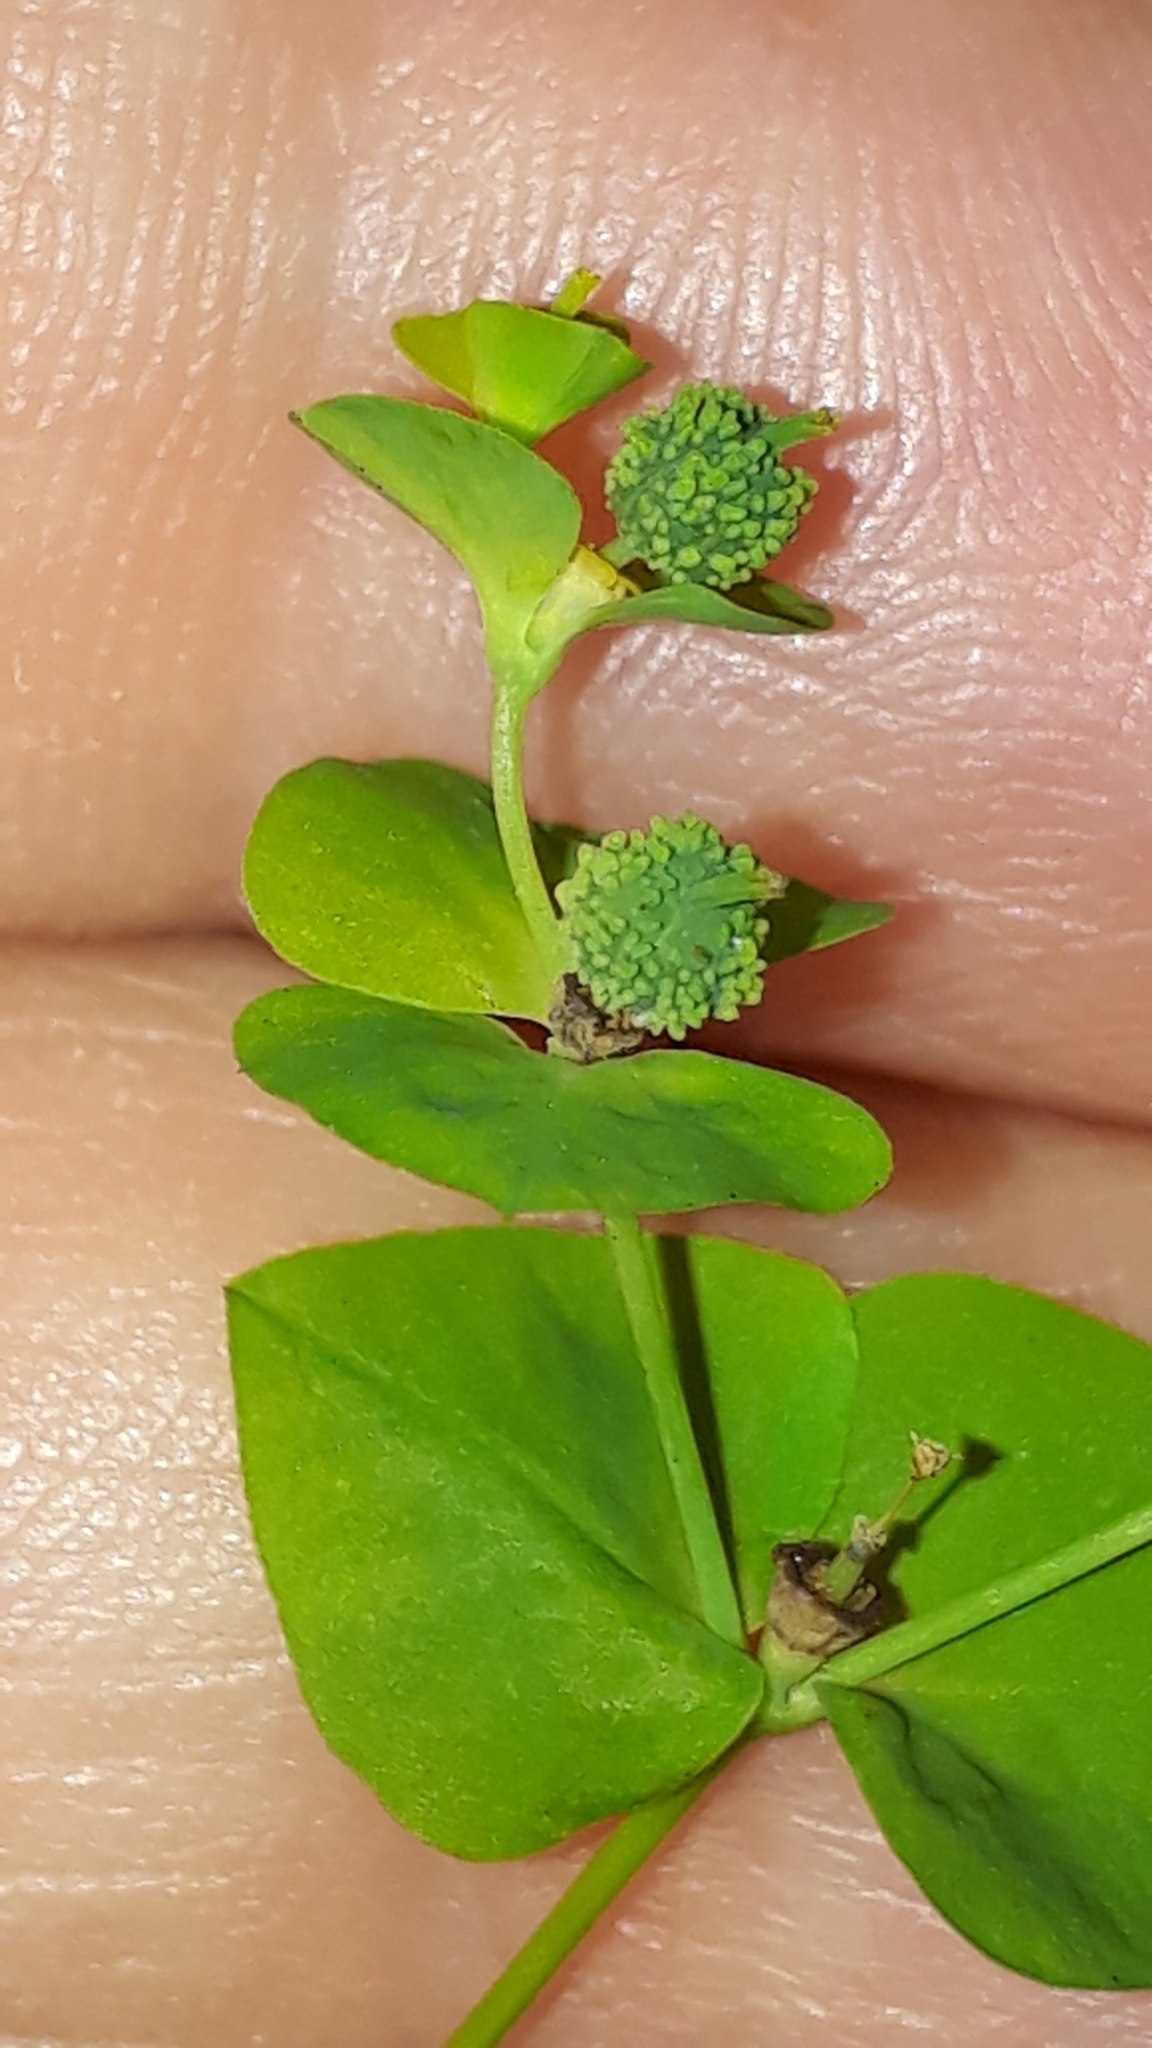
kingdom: Plantae
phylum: Tracheophyta
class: Magnoliopsida
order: Malpighiales
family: Euphorbiaceae
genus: Euphorbia
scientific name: Euphorbia stricta
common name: Upright spurge
